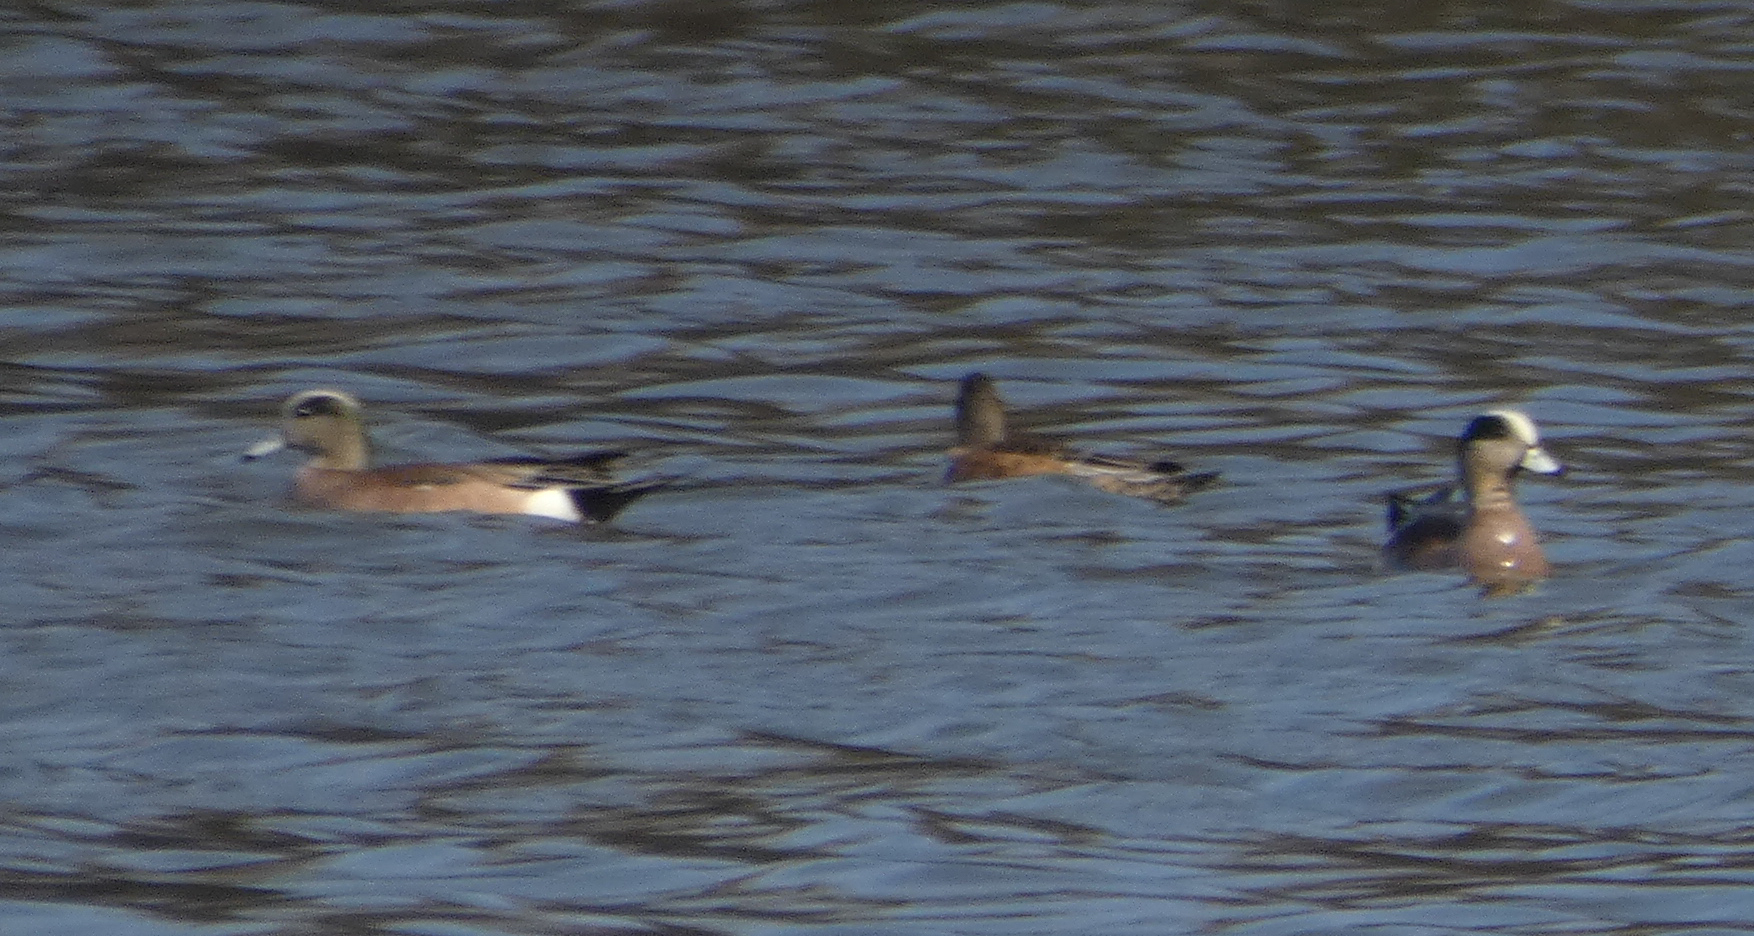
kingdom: Animalia
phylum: Chordata
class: Aves
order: Anseriformes
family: Anatidae
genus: Mareca
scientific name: Mareca americana
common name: American wigeon
